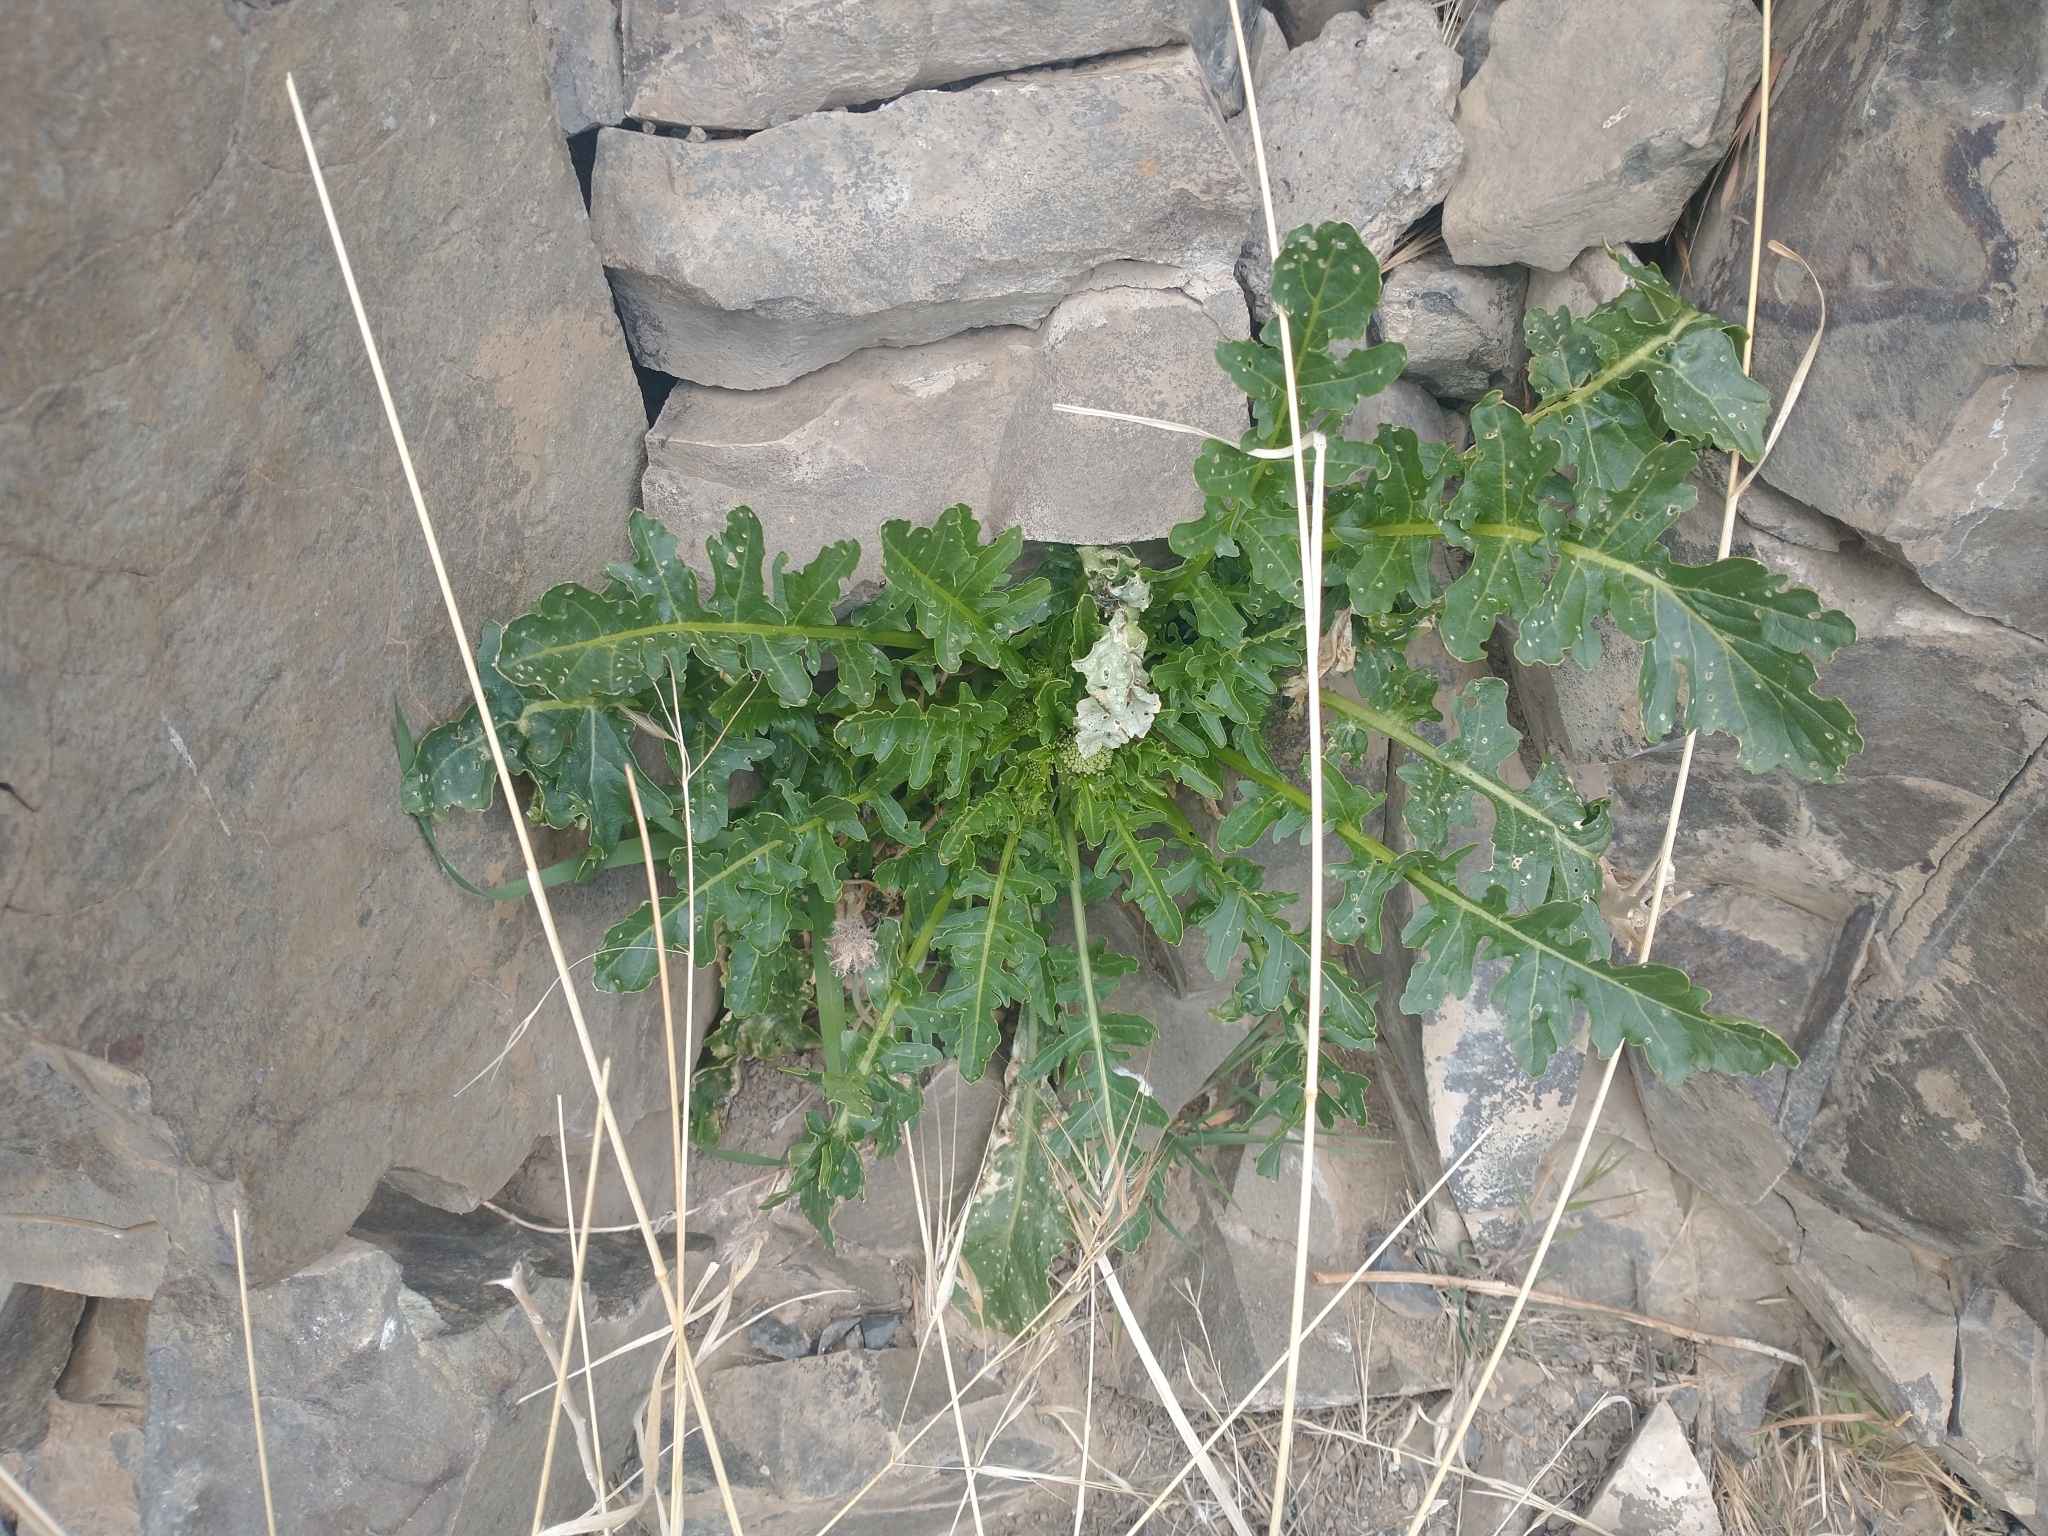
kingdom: Plantae
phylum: Tracheophyta
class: Magnoliopsida
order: Brassicales
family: Brassicaceae
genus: Thelypodium
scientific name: Thelypodium laciniatum
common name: Cut-leaved thelypody
